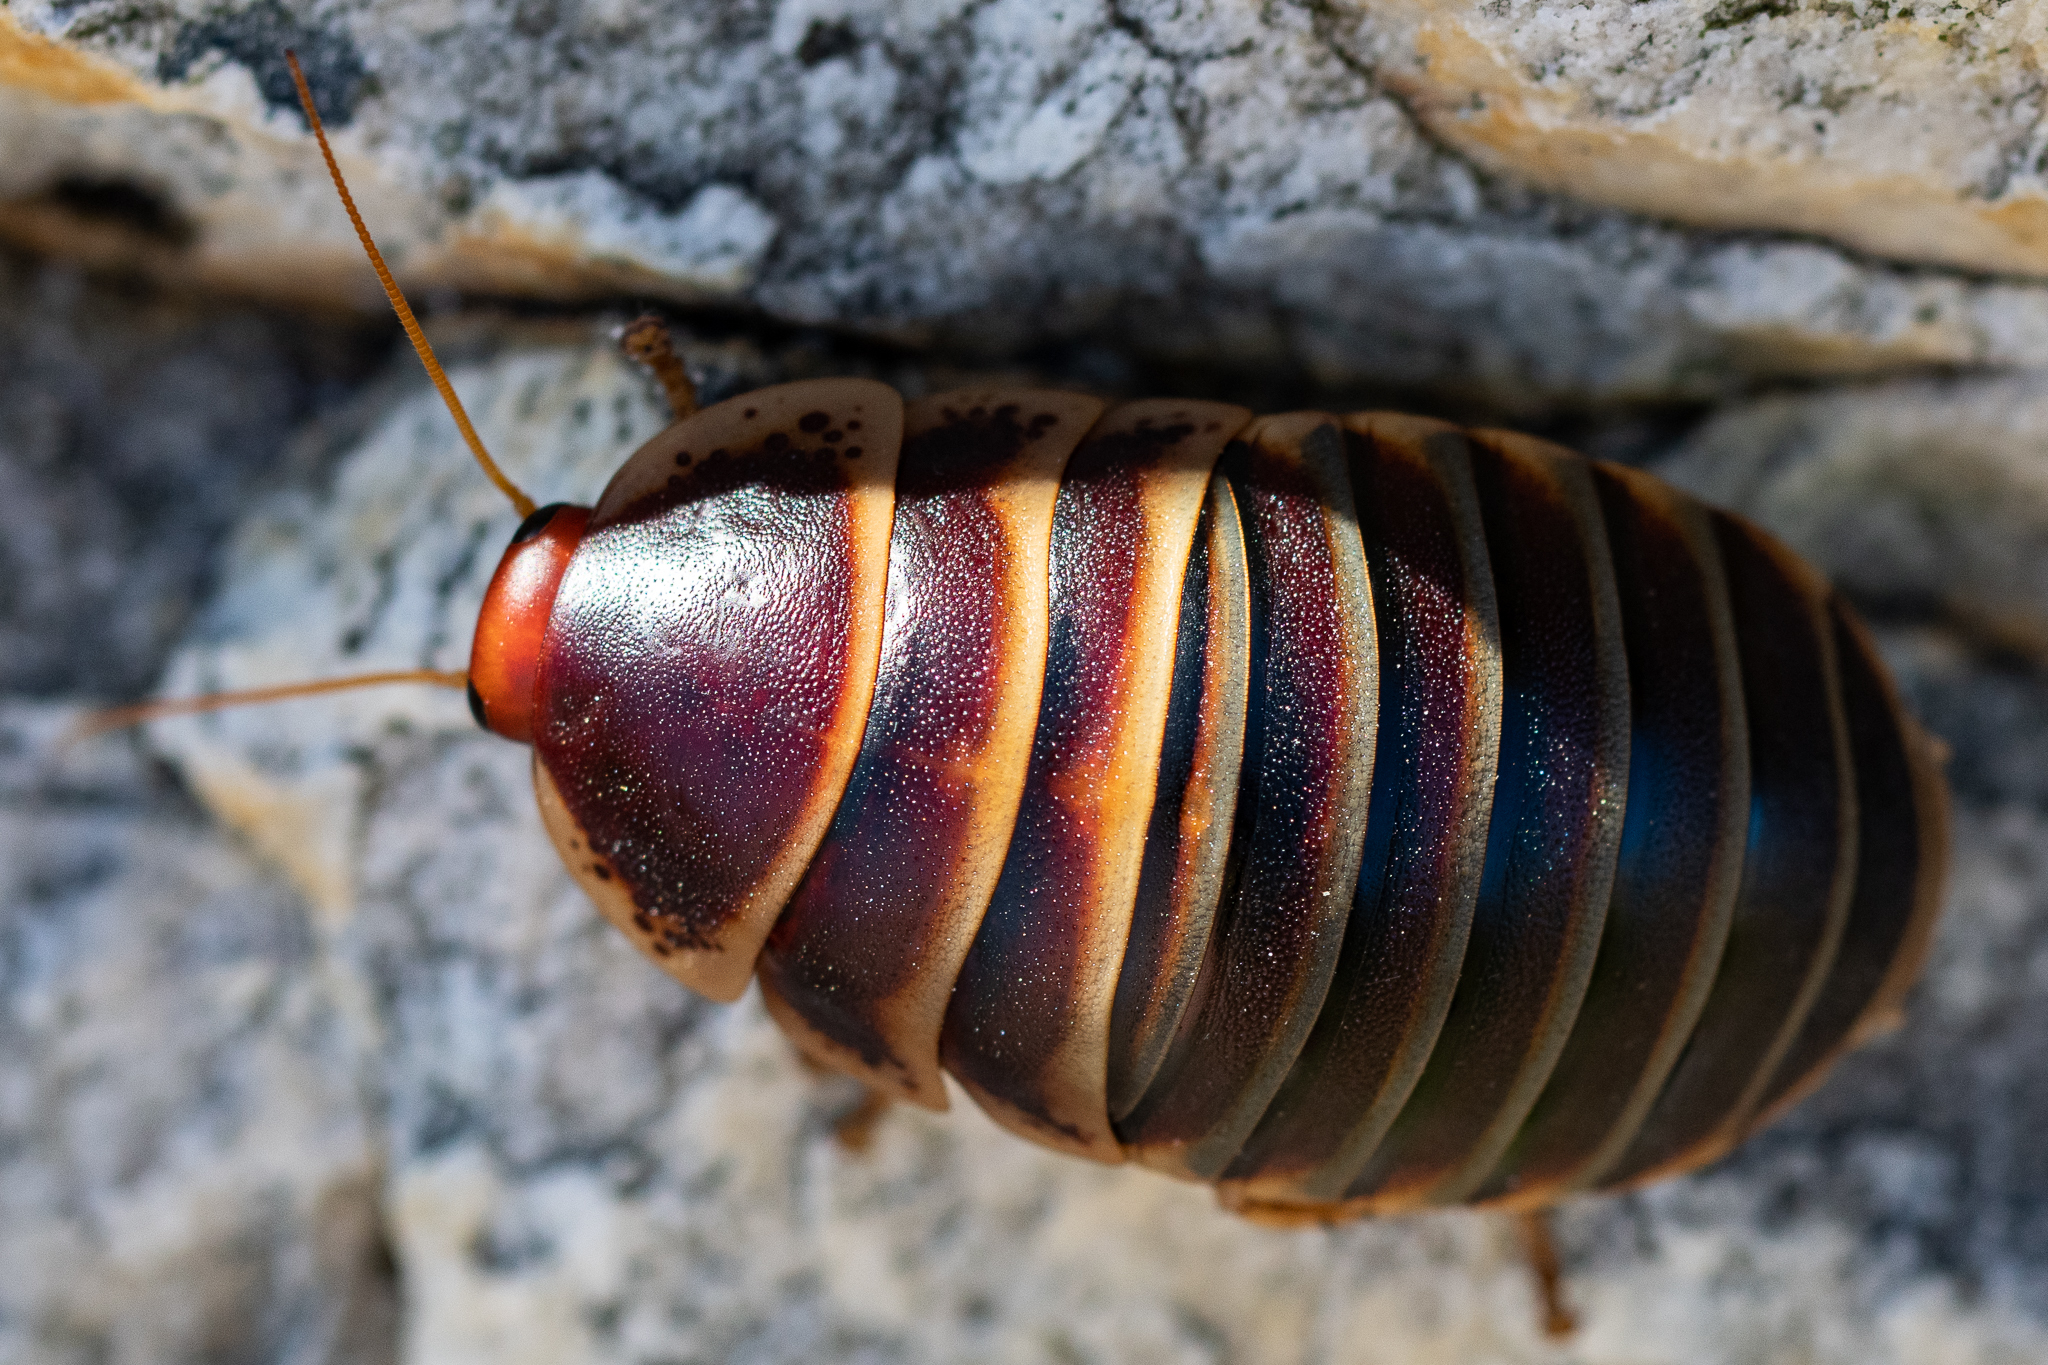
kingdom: Animalia
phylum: Arthropoda
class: Insecta
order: Blattodea
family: Blaberidae
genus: Aptera
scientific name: Aptera fusca
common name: Cape mountain cockroach
